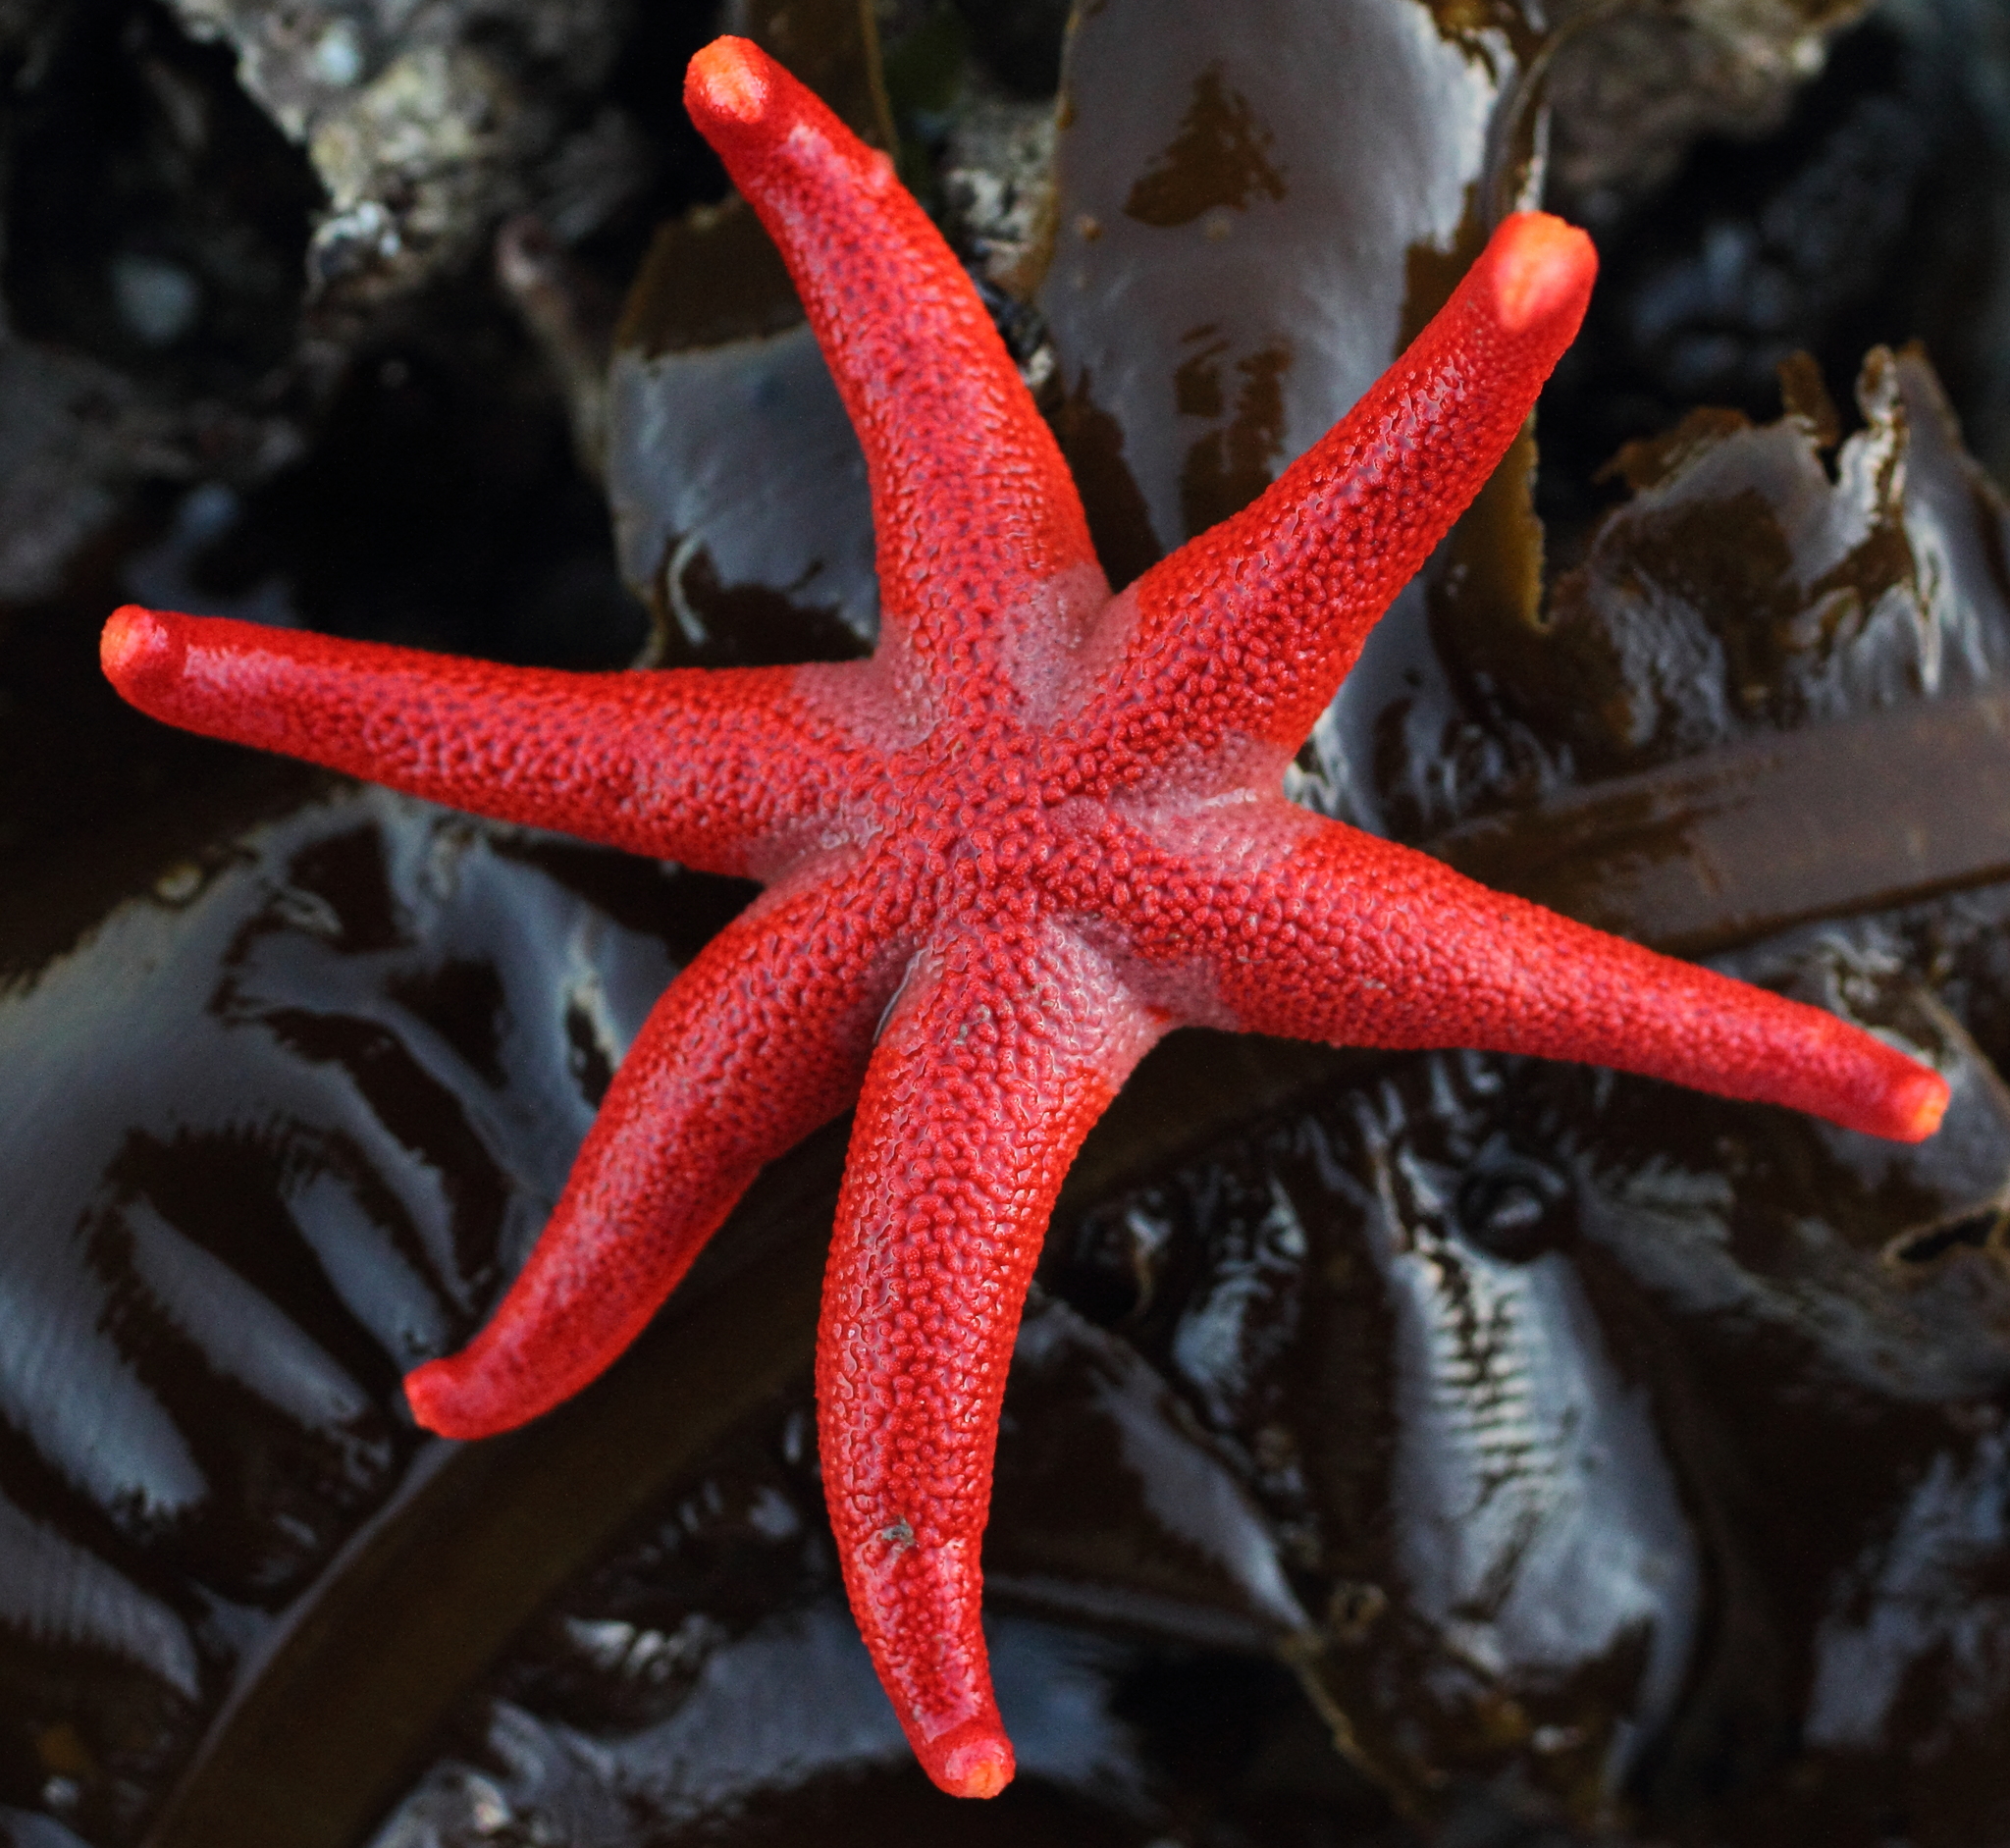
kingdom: Animalia
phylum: Echinodermata
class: Asteroidea
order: Spinulosida
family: Echinasteridae
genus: Henricia
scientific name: Henricia leviuscula
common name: Pacific blood star
